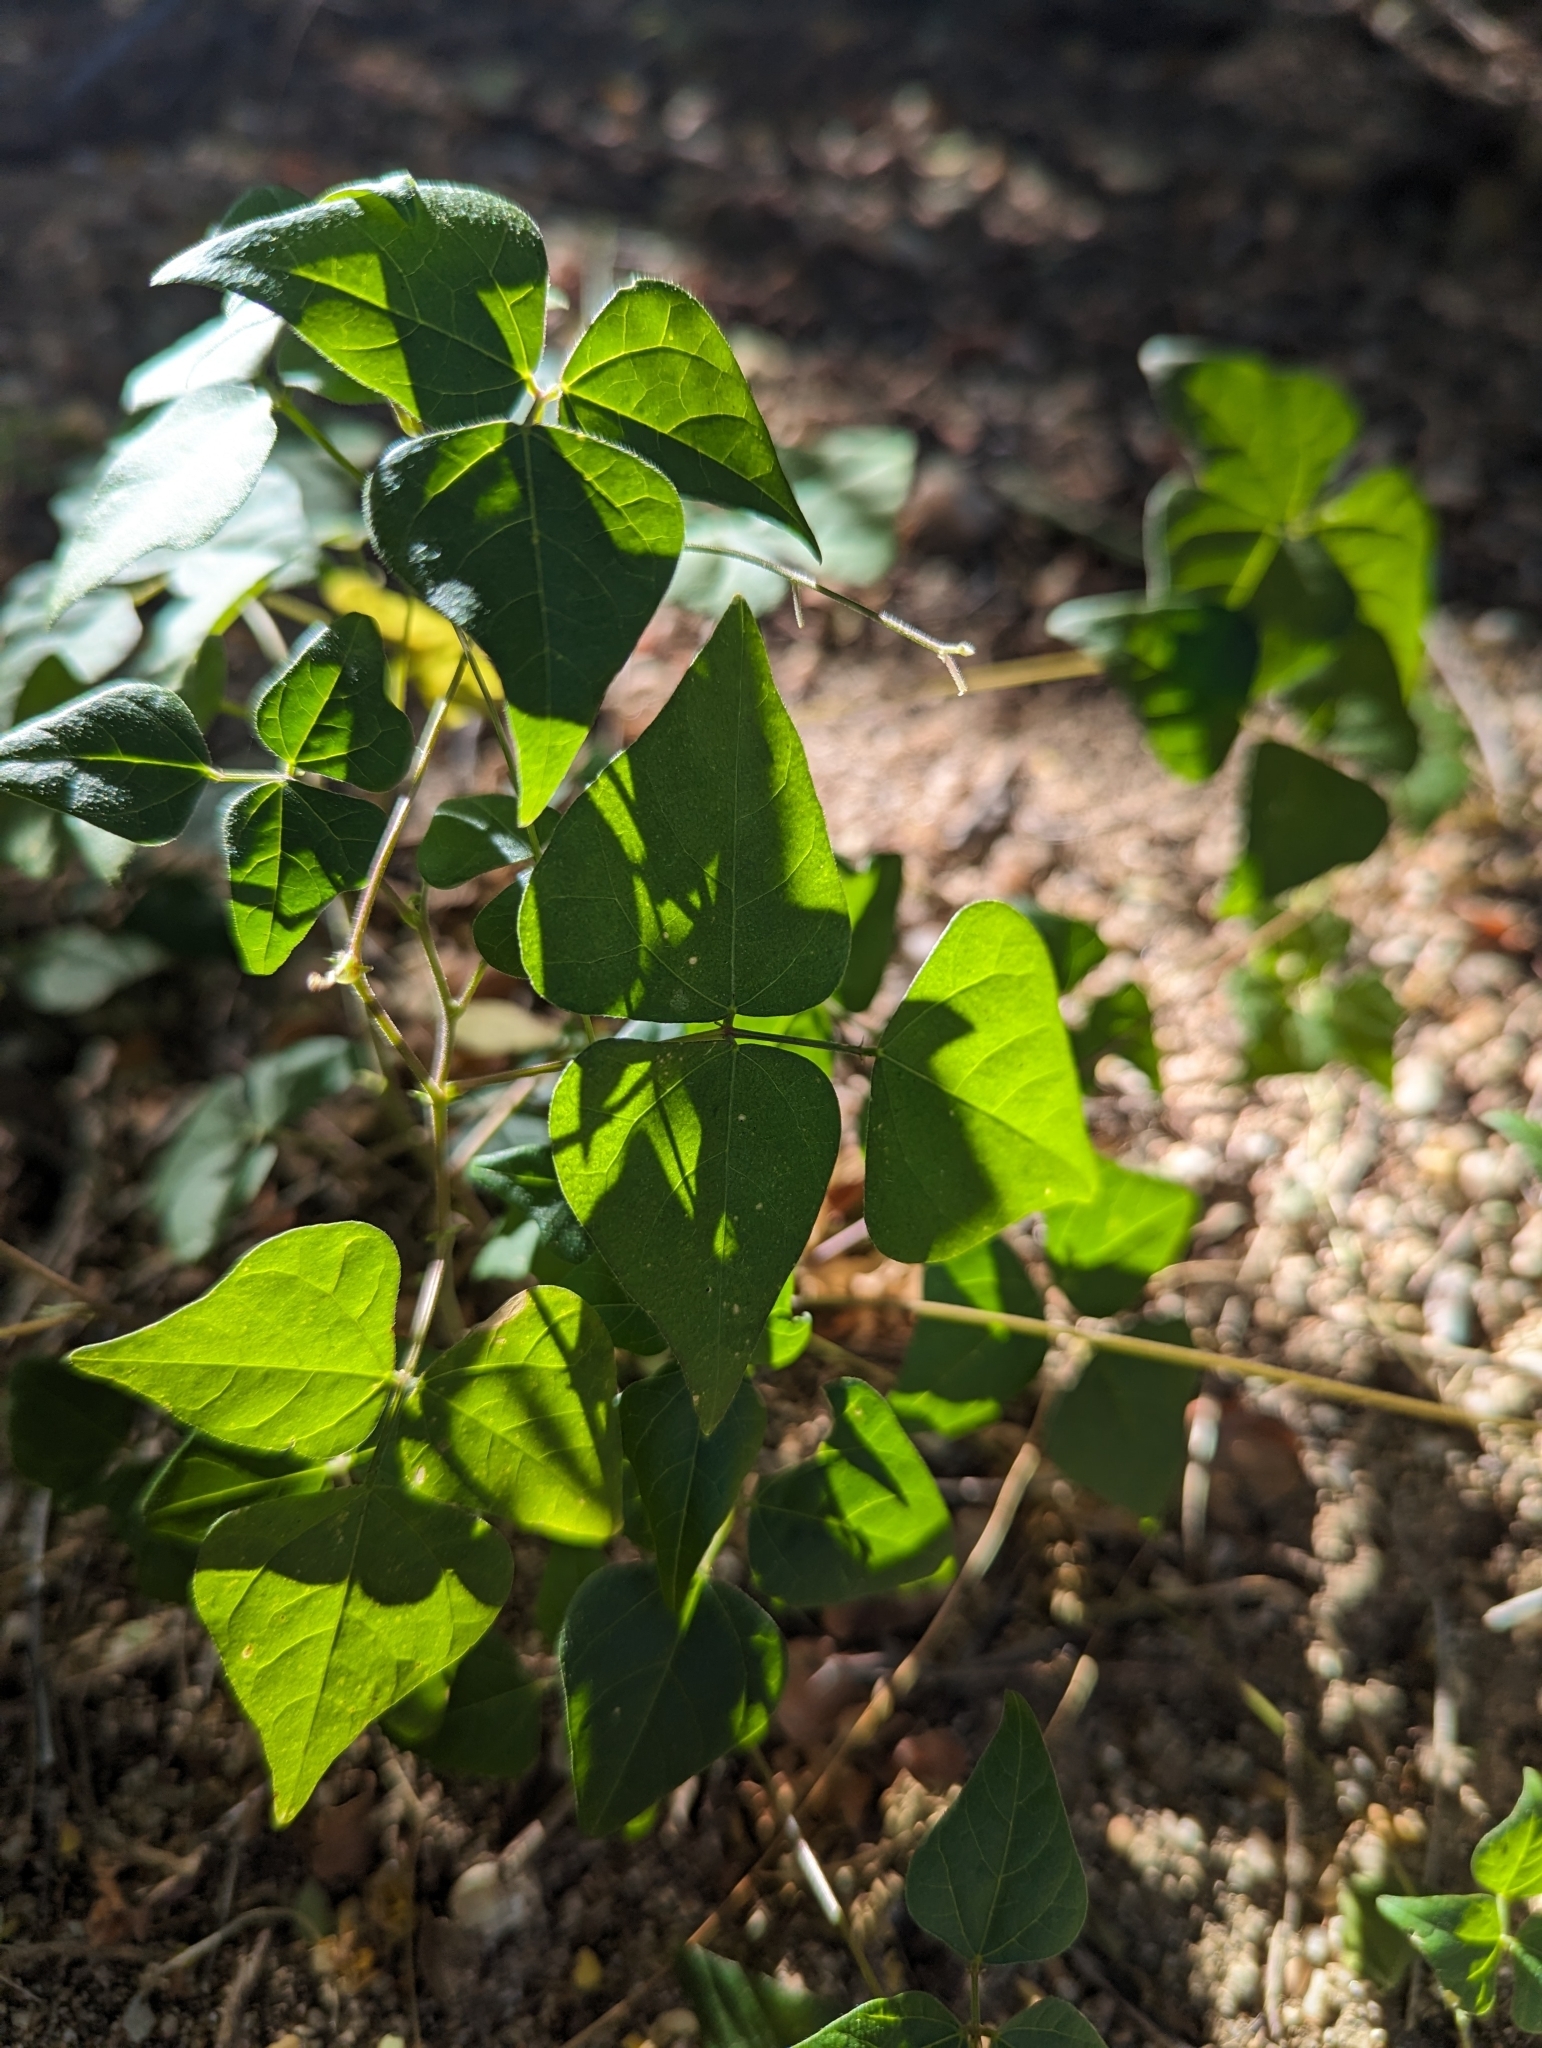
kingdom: Plantae
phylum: Tracheophyta
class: Magnoliopsida
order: Fabales
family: Fabaceae
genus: Phaseolus
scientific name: Phaseolus filiformis
